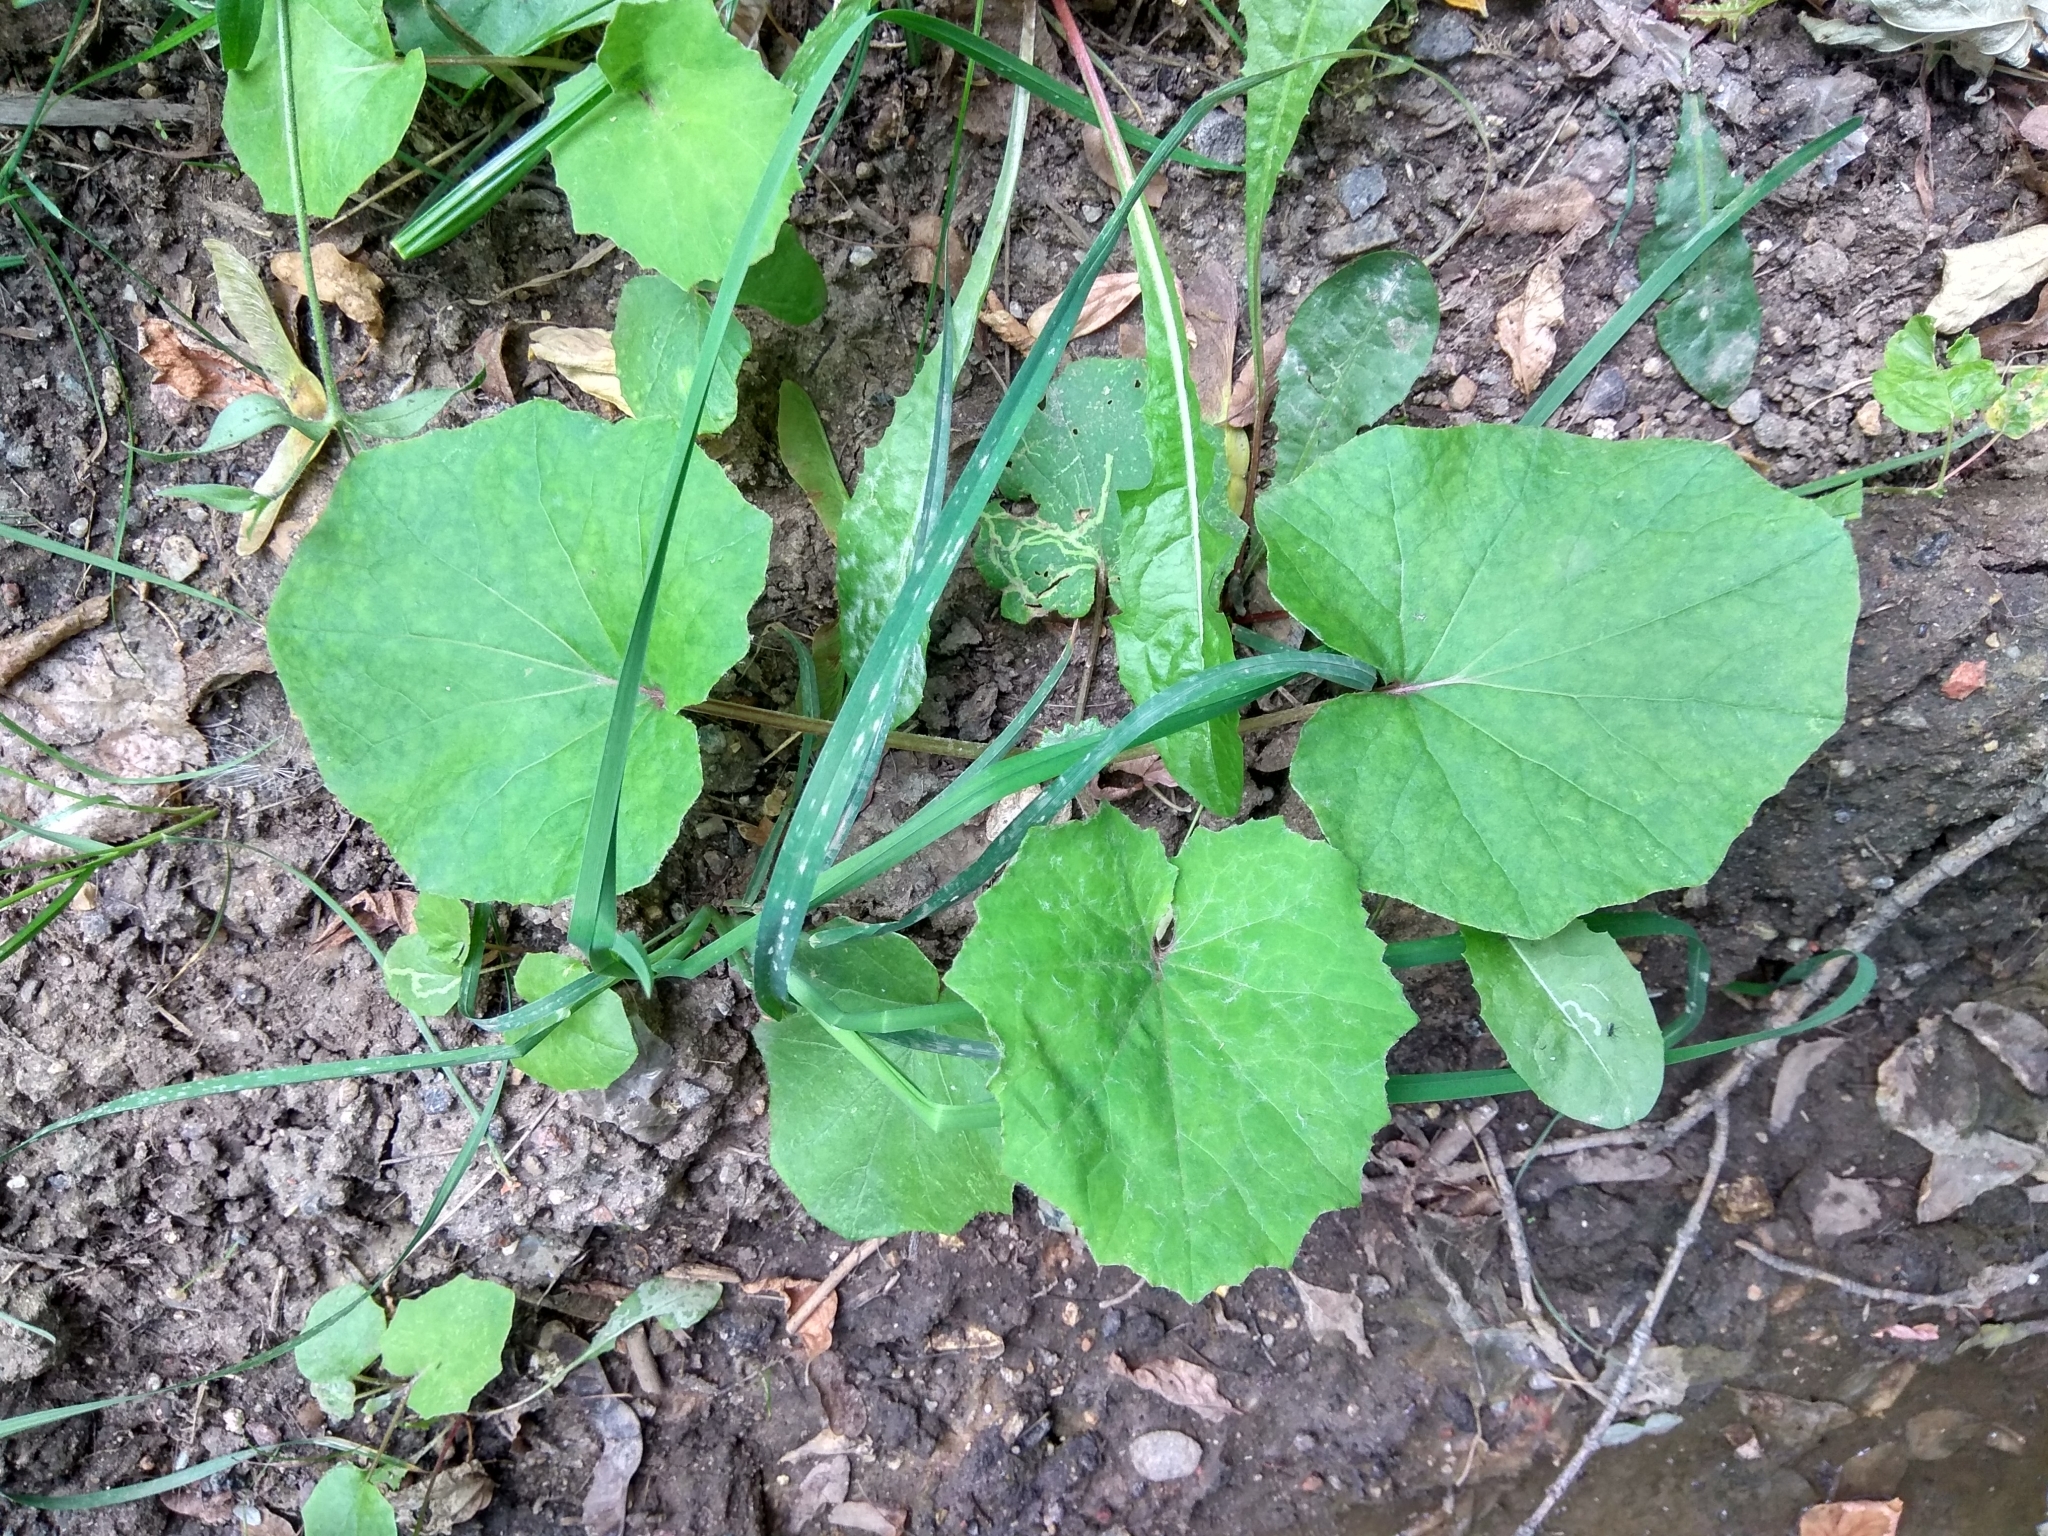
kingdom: Plantae
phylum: Tracheophyta
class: Magnoliopsida
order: Asterales
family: Asteraceae
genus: Tussilago
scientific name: Tussilago farfara
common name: Coltsfoot
